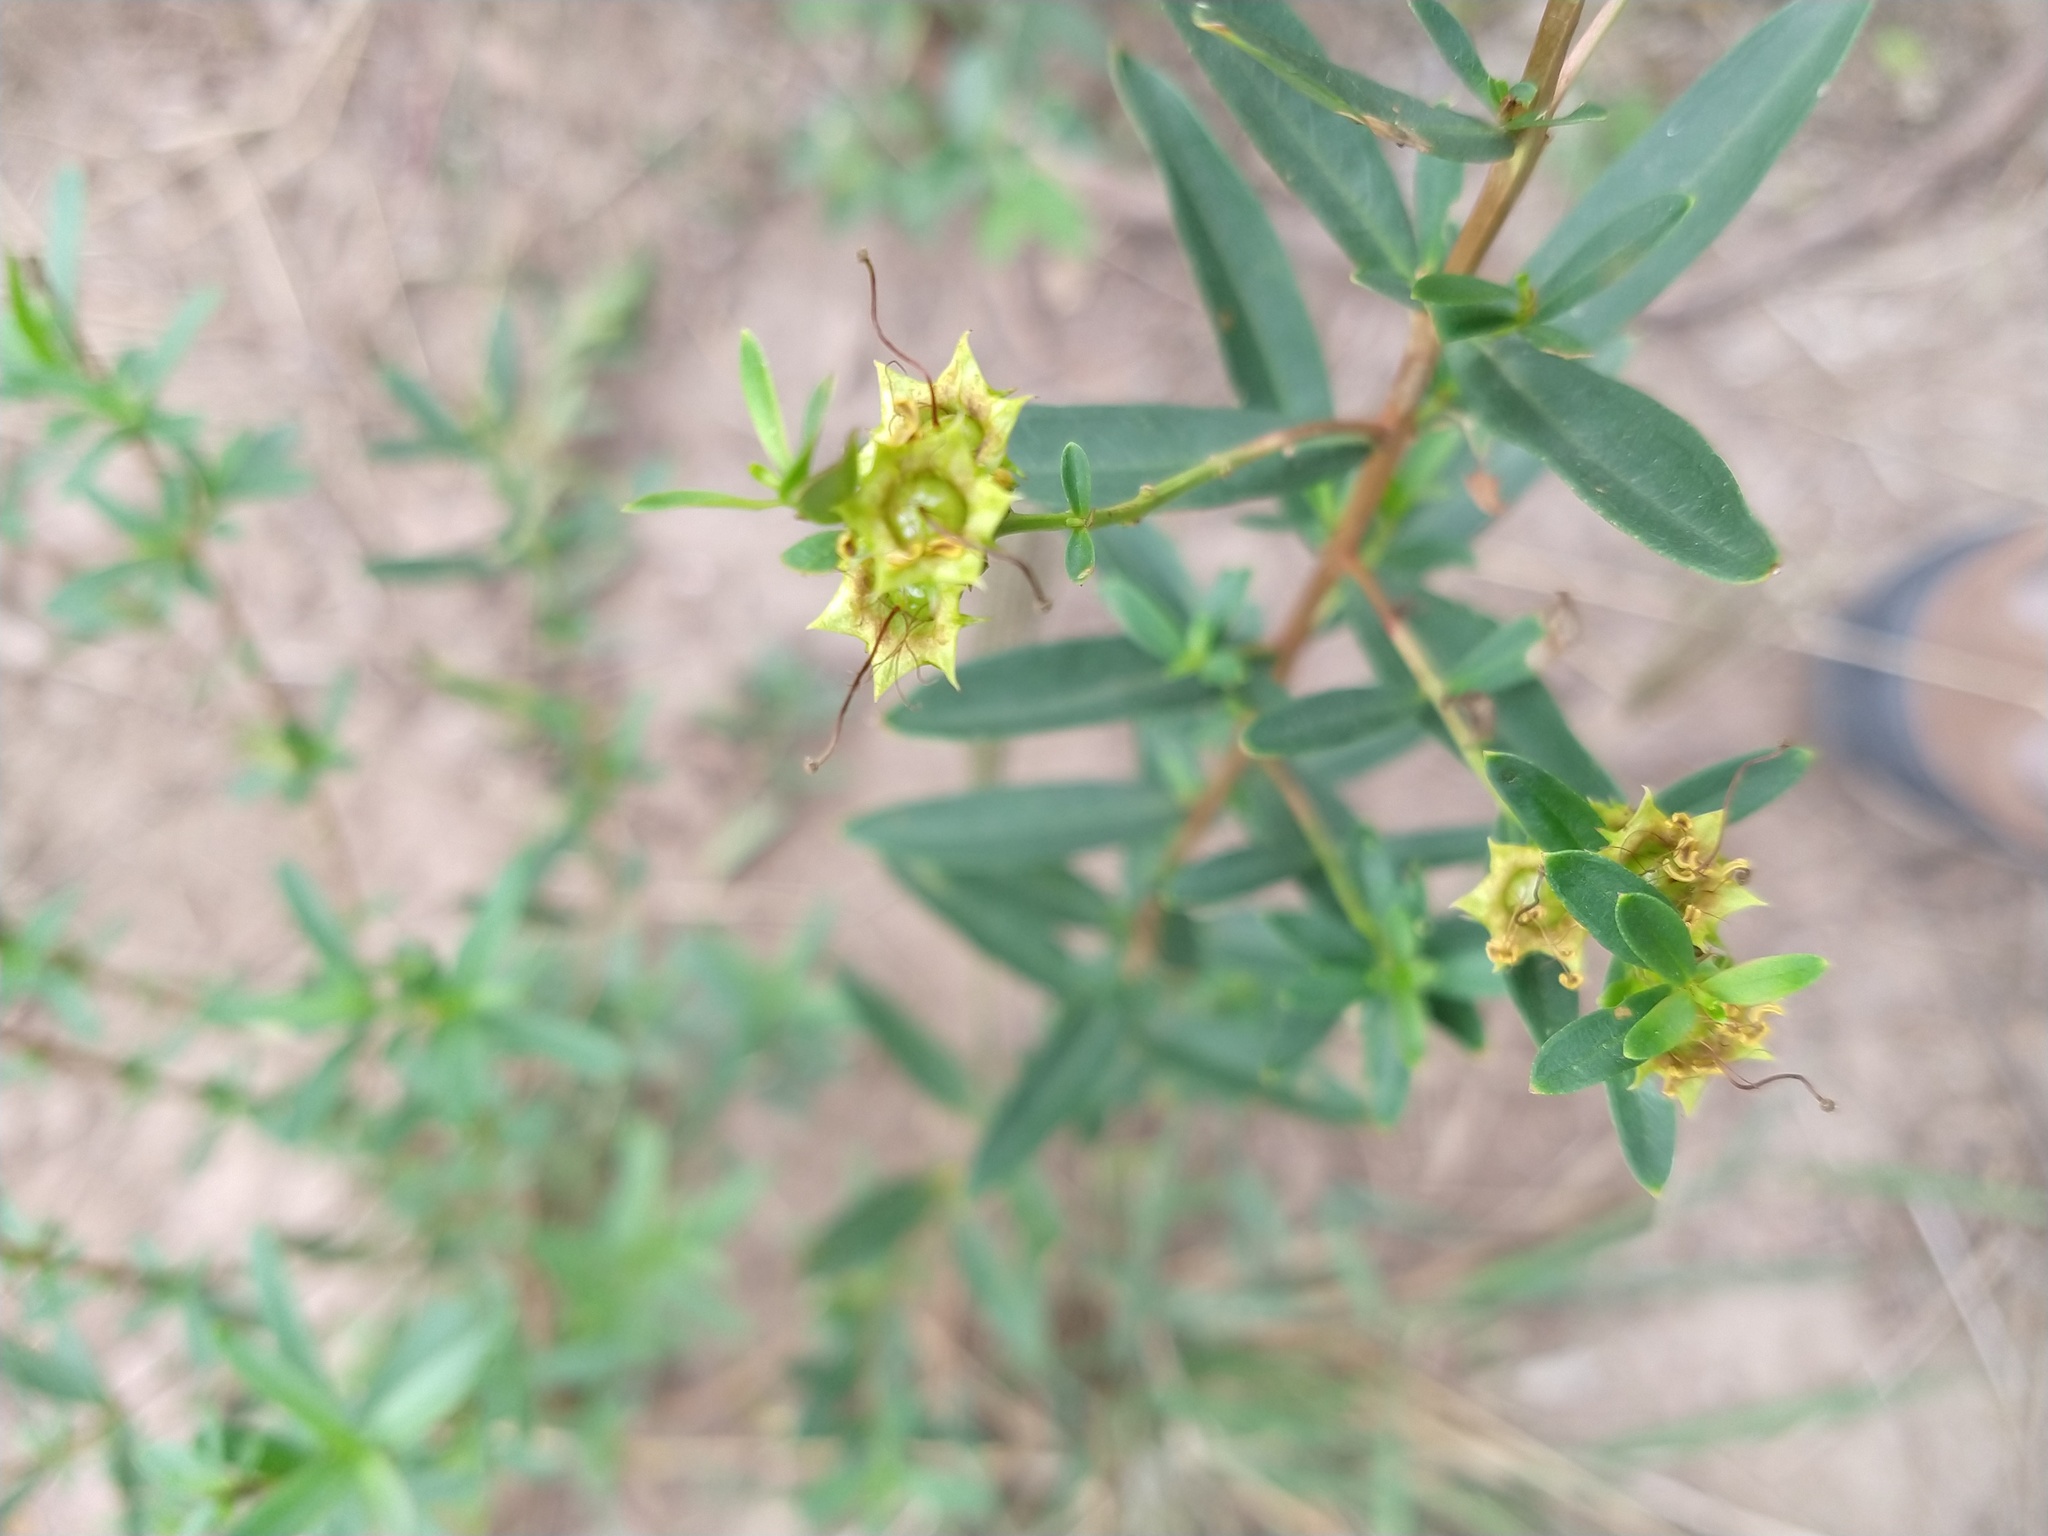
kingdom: Plantae
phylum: Tracheophyta
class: Magnoliopsida
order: Myrtales
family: Lythraceae
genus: Heimia
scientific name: Heimia salicifolia
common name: Willow-leaf heimia
